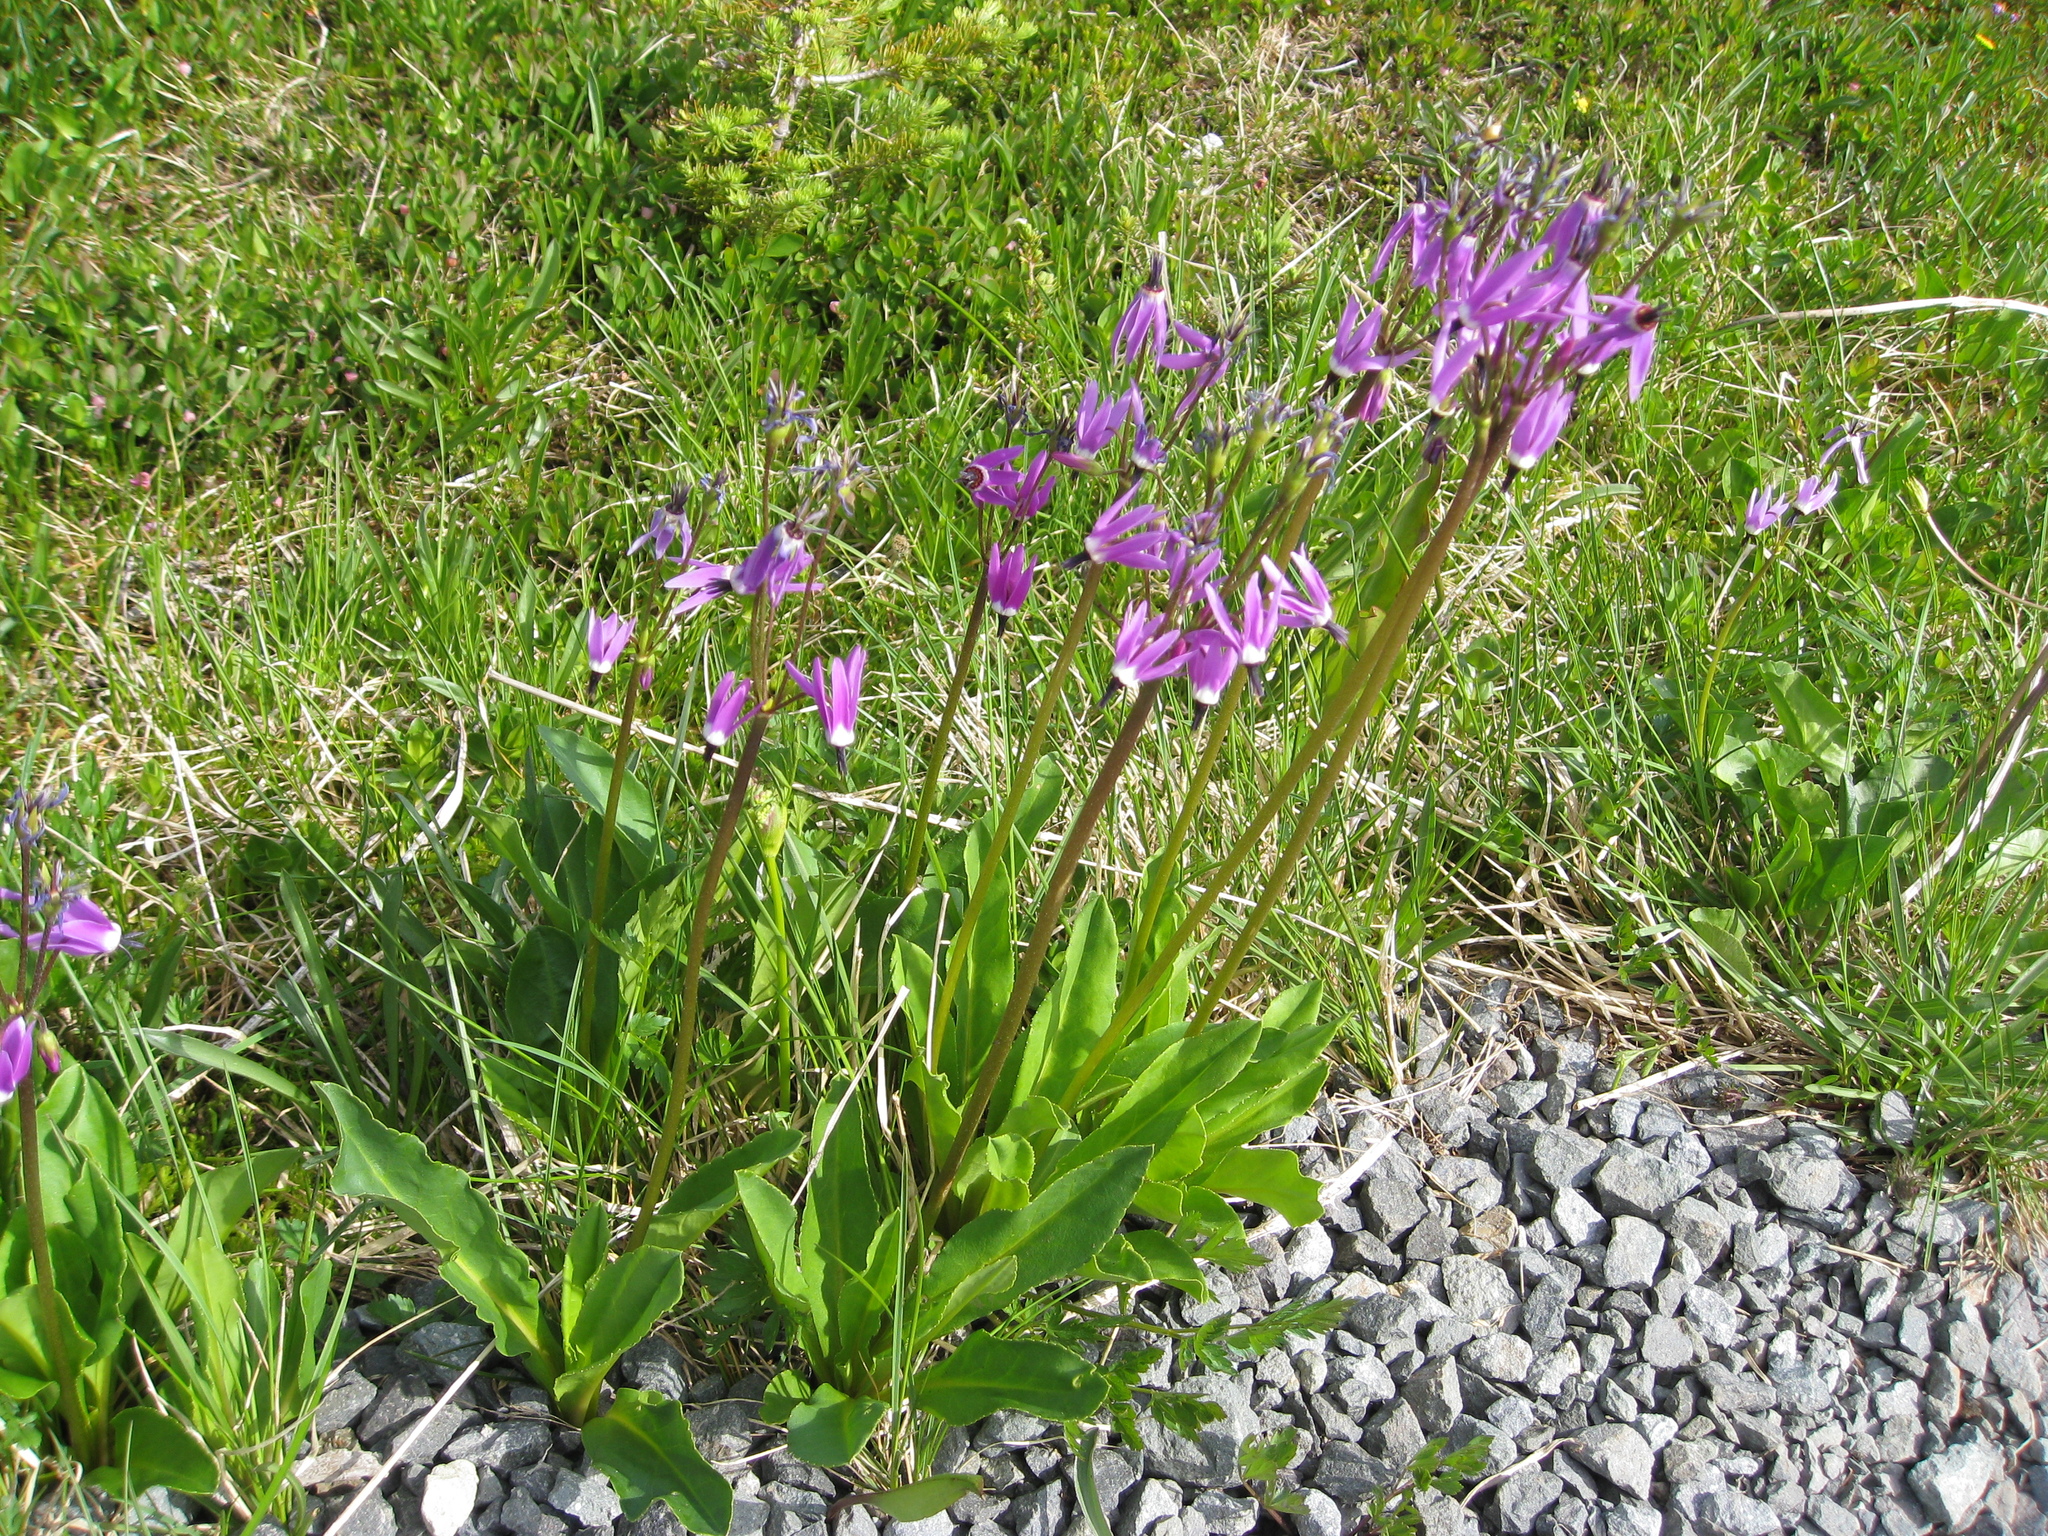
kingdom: Plantae
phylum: Tracheophyta
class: Magnoliopsida
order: Ericales
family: Primulaceae
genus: Dodecatheon
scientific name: Dodecatheon jeffreyanum
